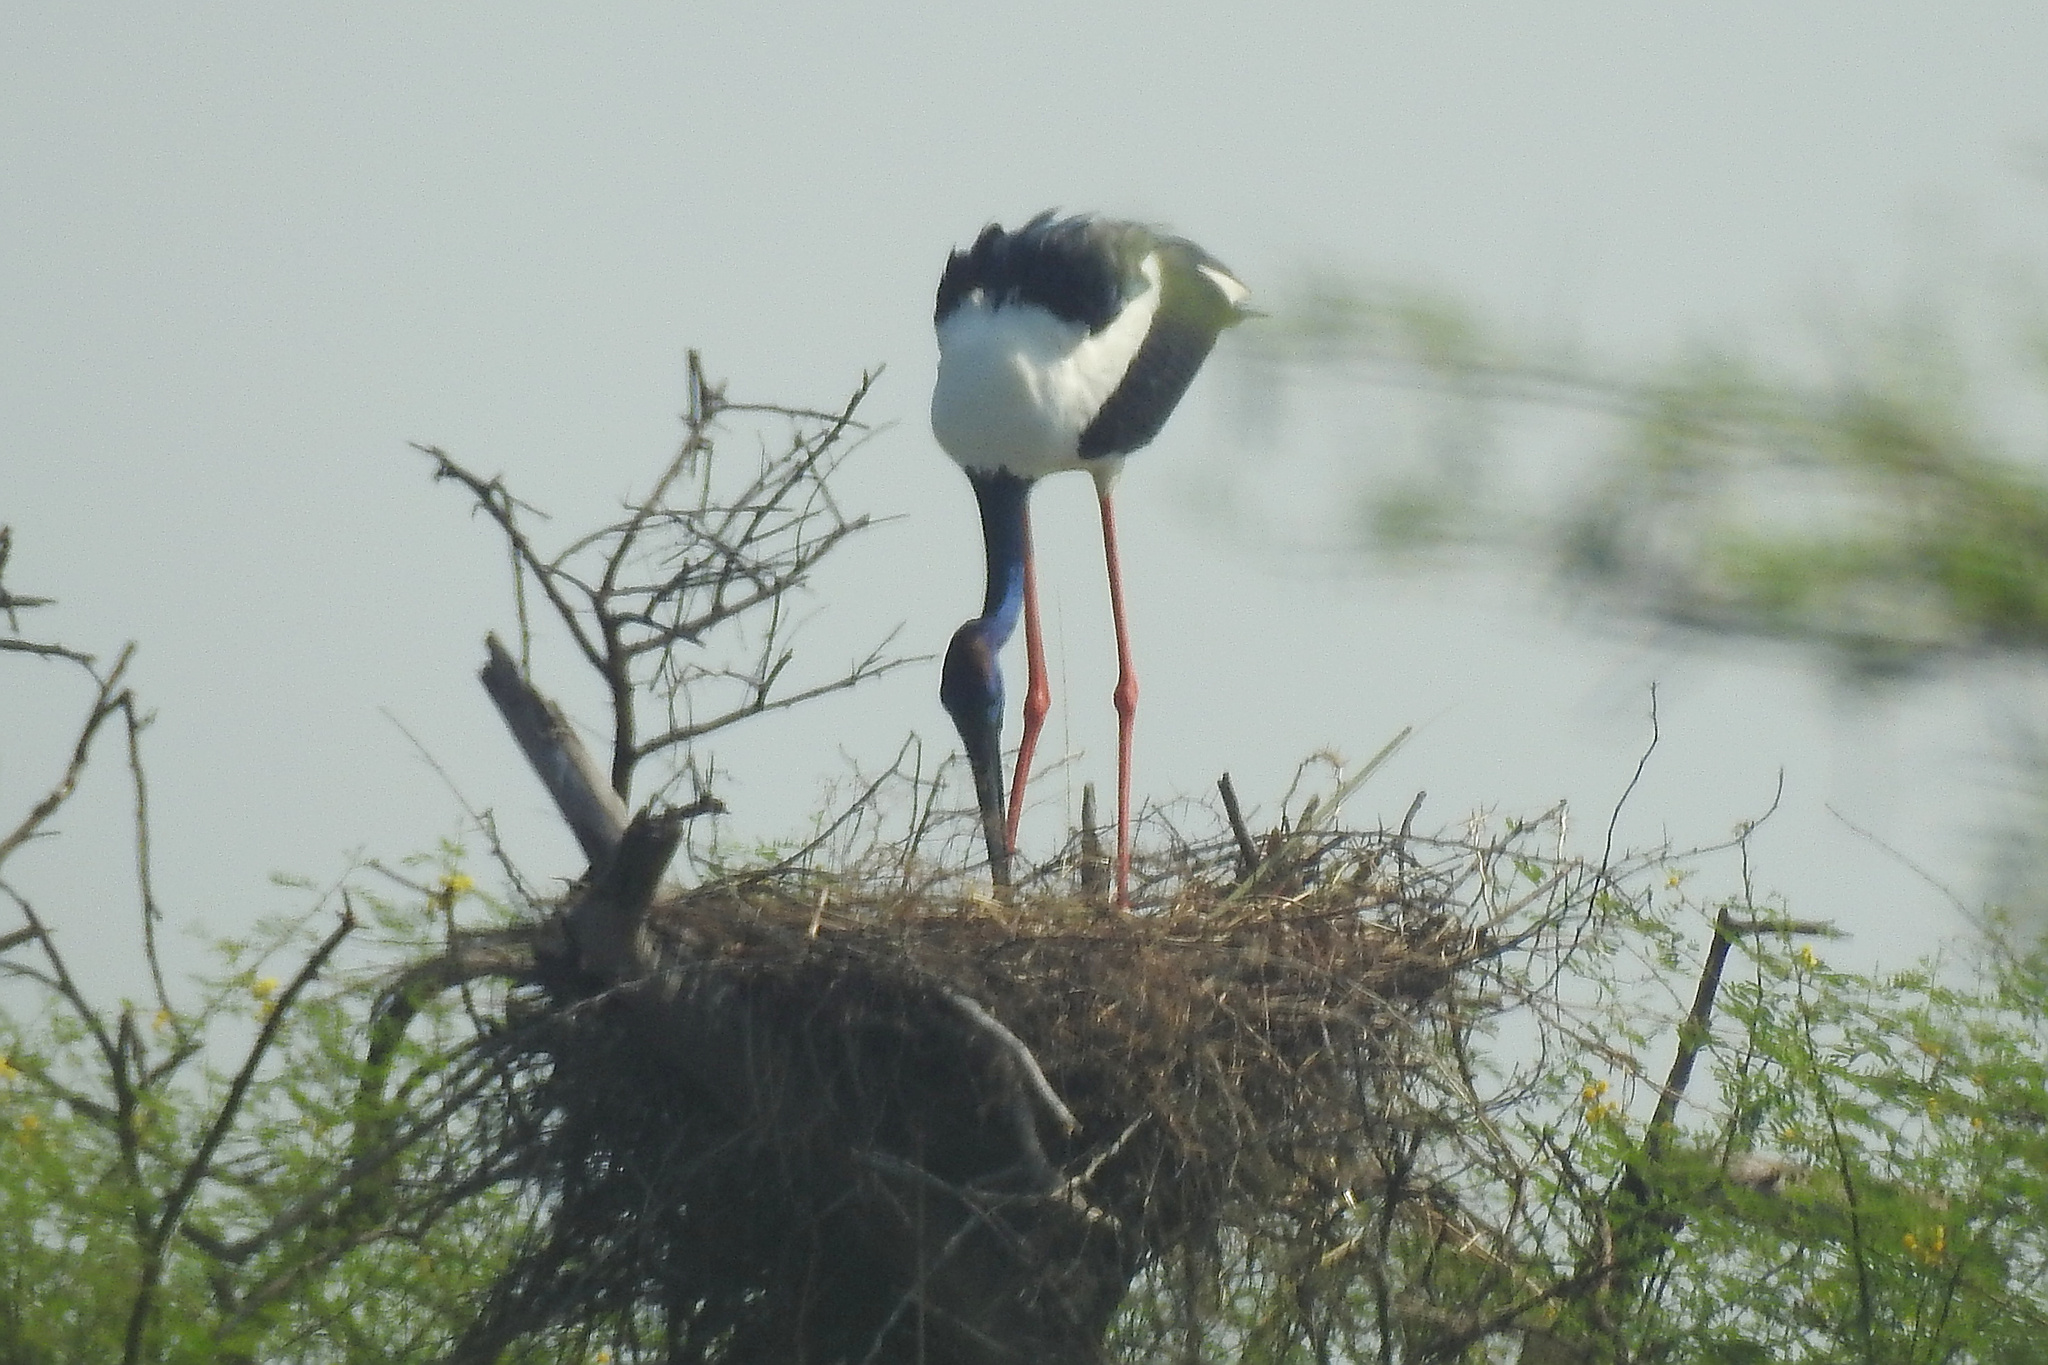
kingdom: Animalia
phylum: Chordata
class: Aves
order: Ciconiiformes
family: Ciconiidae
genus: Ephippiorhynchus
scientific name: Ephippiorhynchus asiaticus
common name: Black-necked stork
